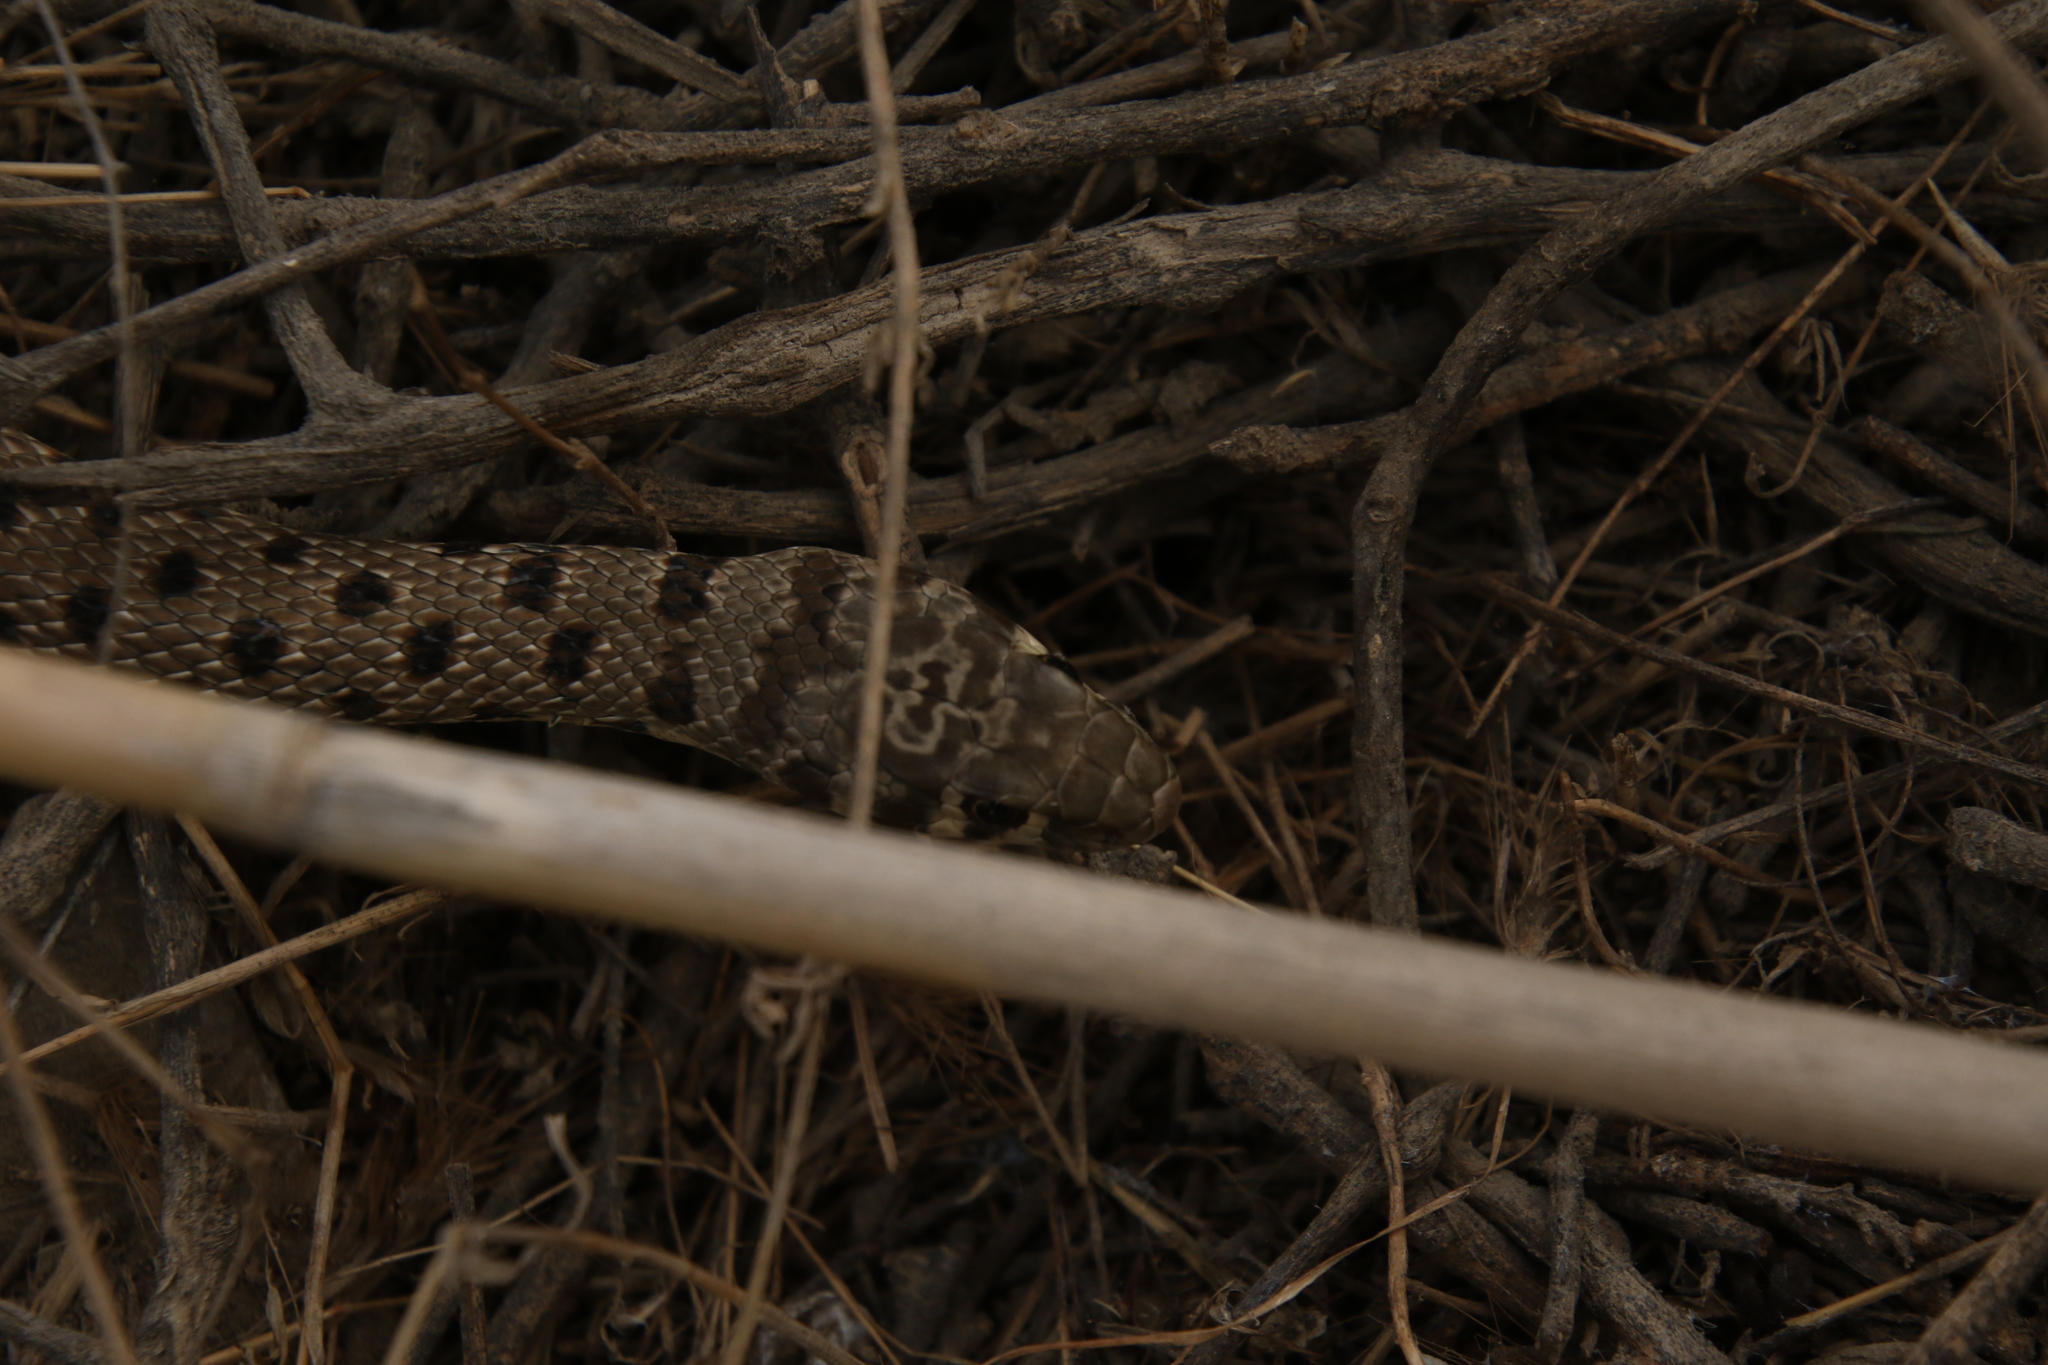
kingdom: Animalia
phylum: Chordata
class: Squamata
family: Colubridae
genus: Platyceps
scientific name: Platyceps rhodorachis
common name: Braid snake
